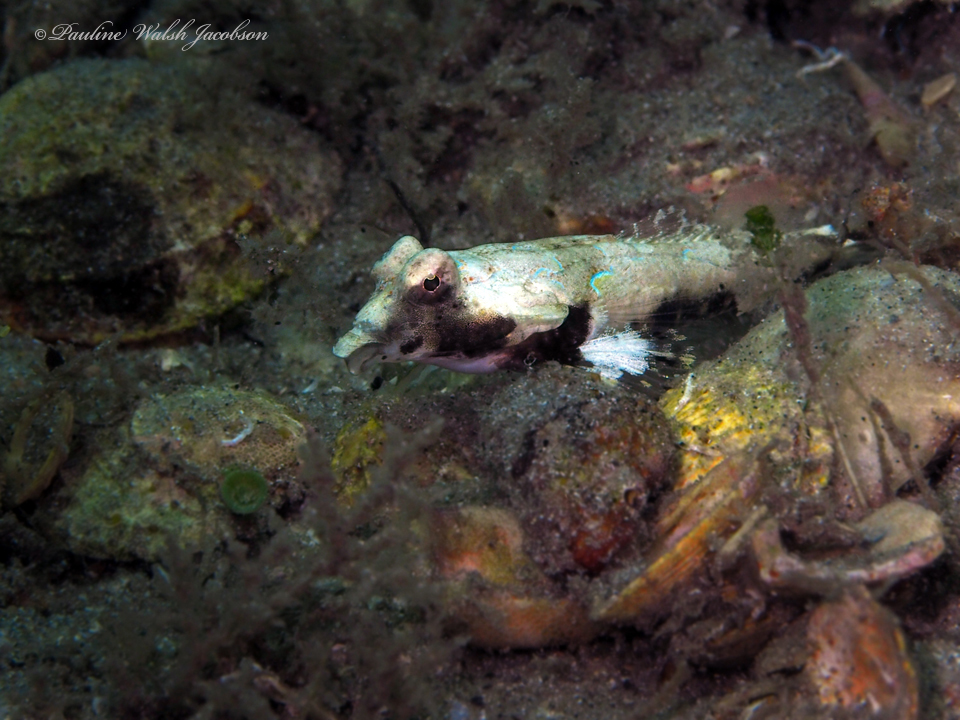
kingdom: Animalia
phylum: Chordata
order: Perciformes
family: Callionymidae
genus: Callionymus
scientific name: Callionymus bairdi
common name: Lancer dragonet
